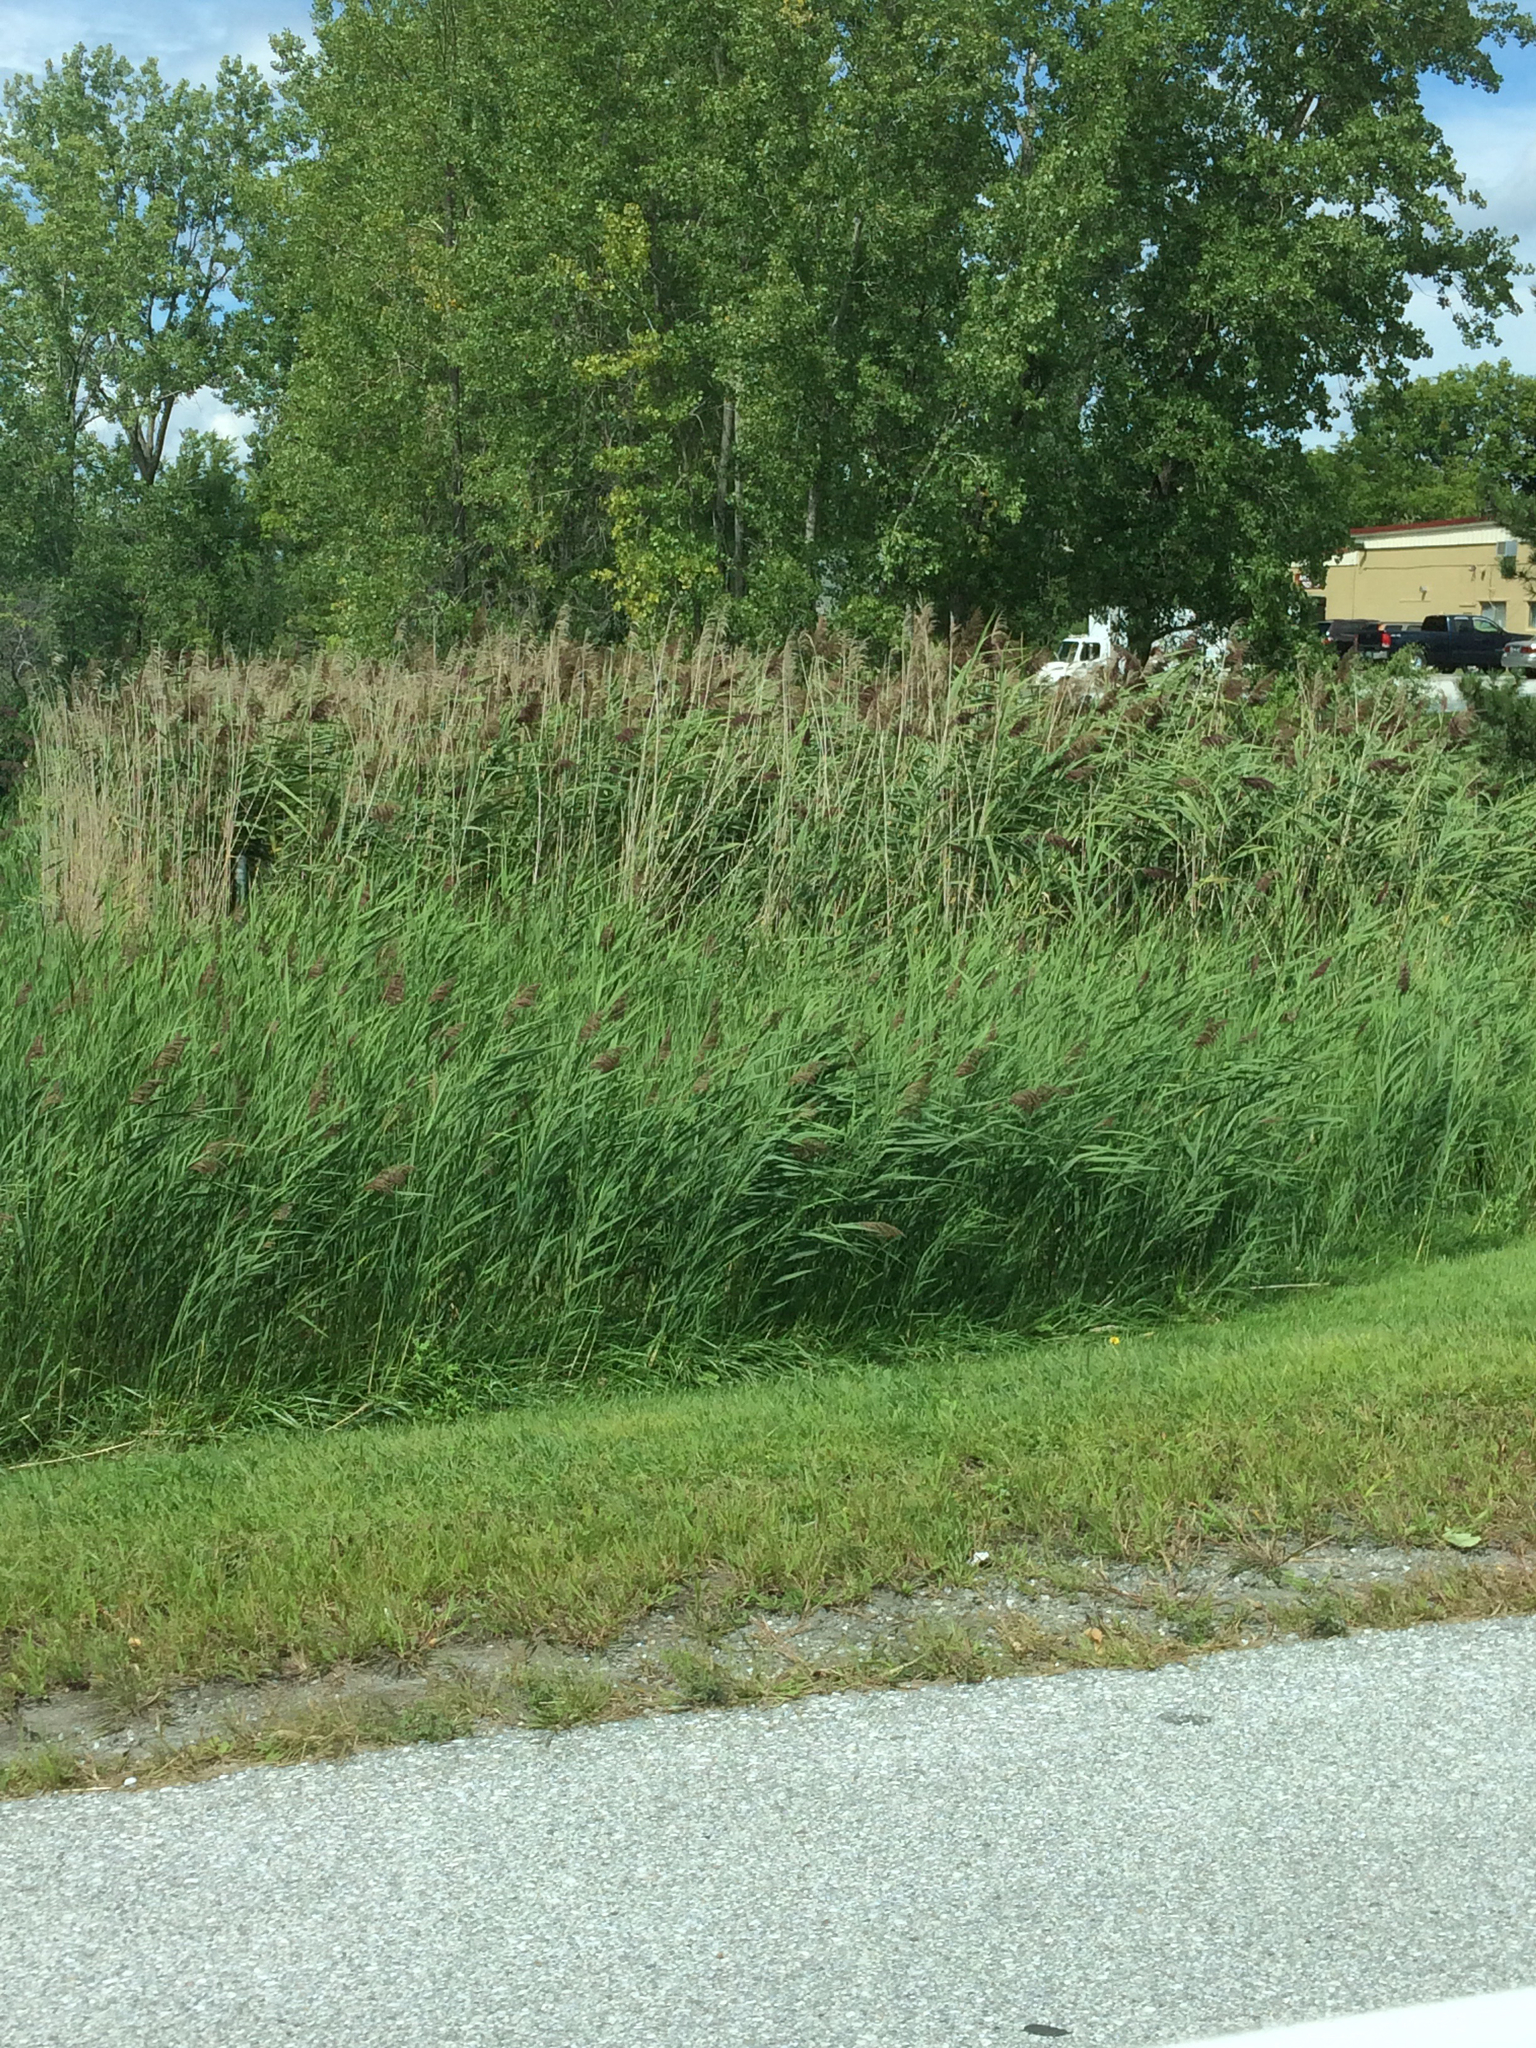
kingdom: Plantae
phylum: Tracheophyta
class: Liliopsida
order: Poales
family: Poaceae
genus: Phragmites
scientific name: Phragmites australis
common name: Common reed
